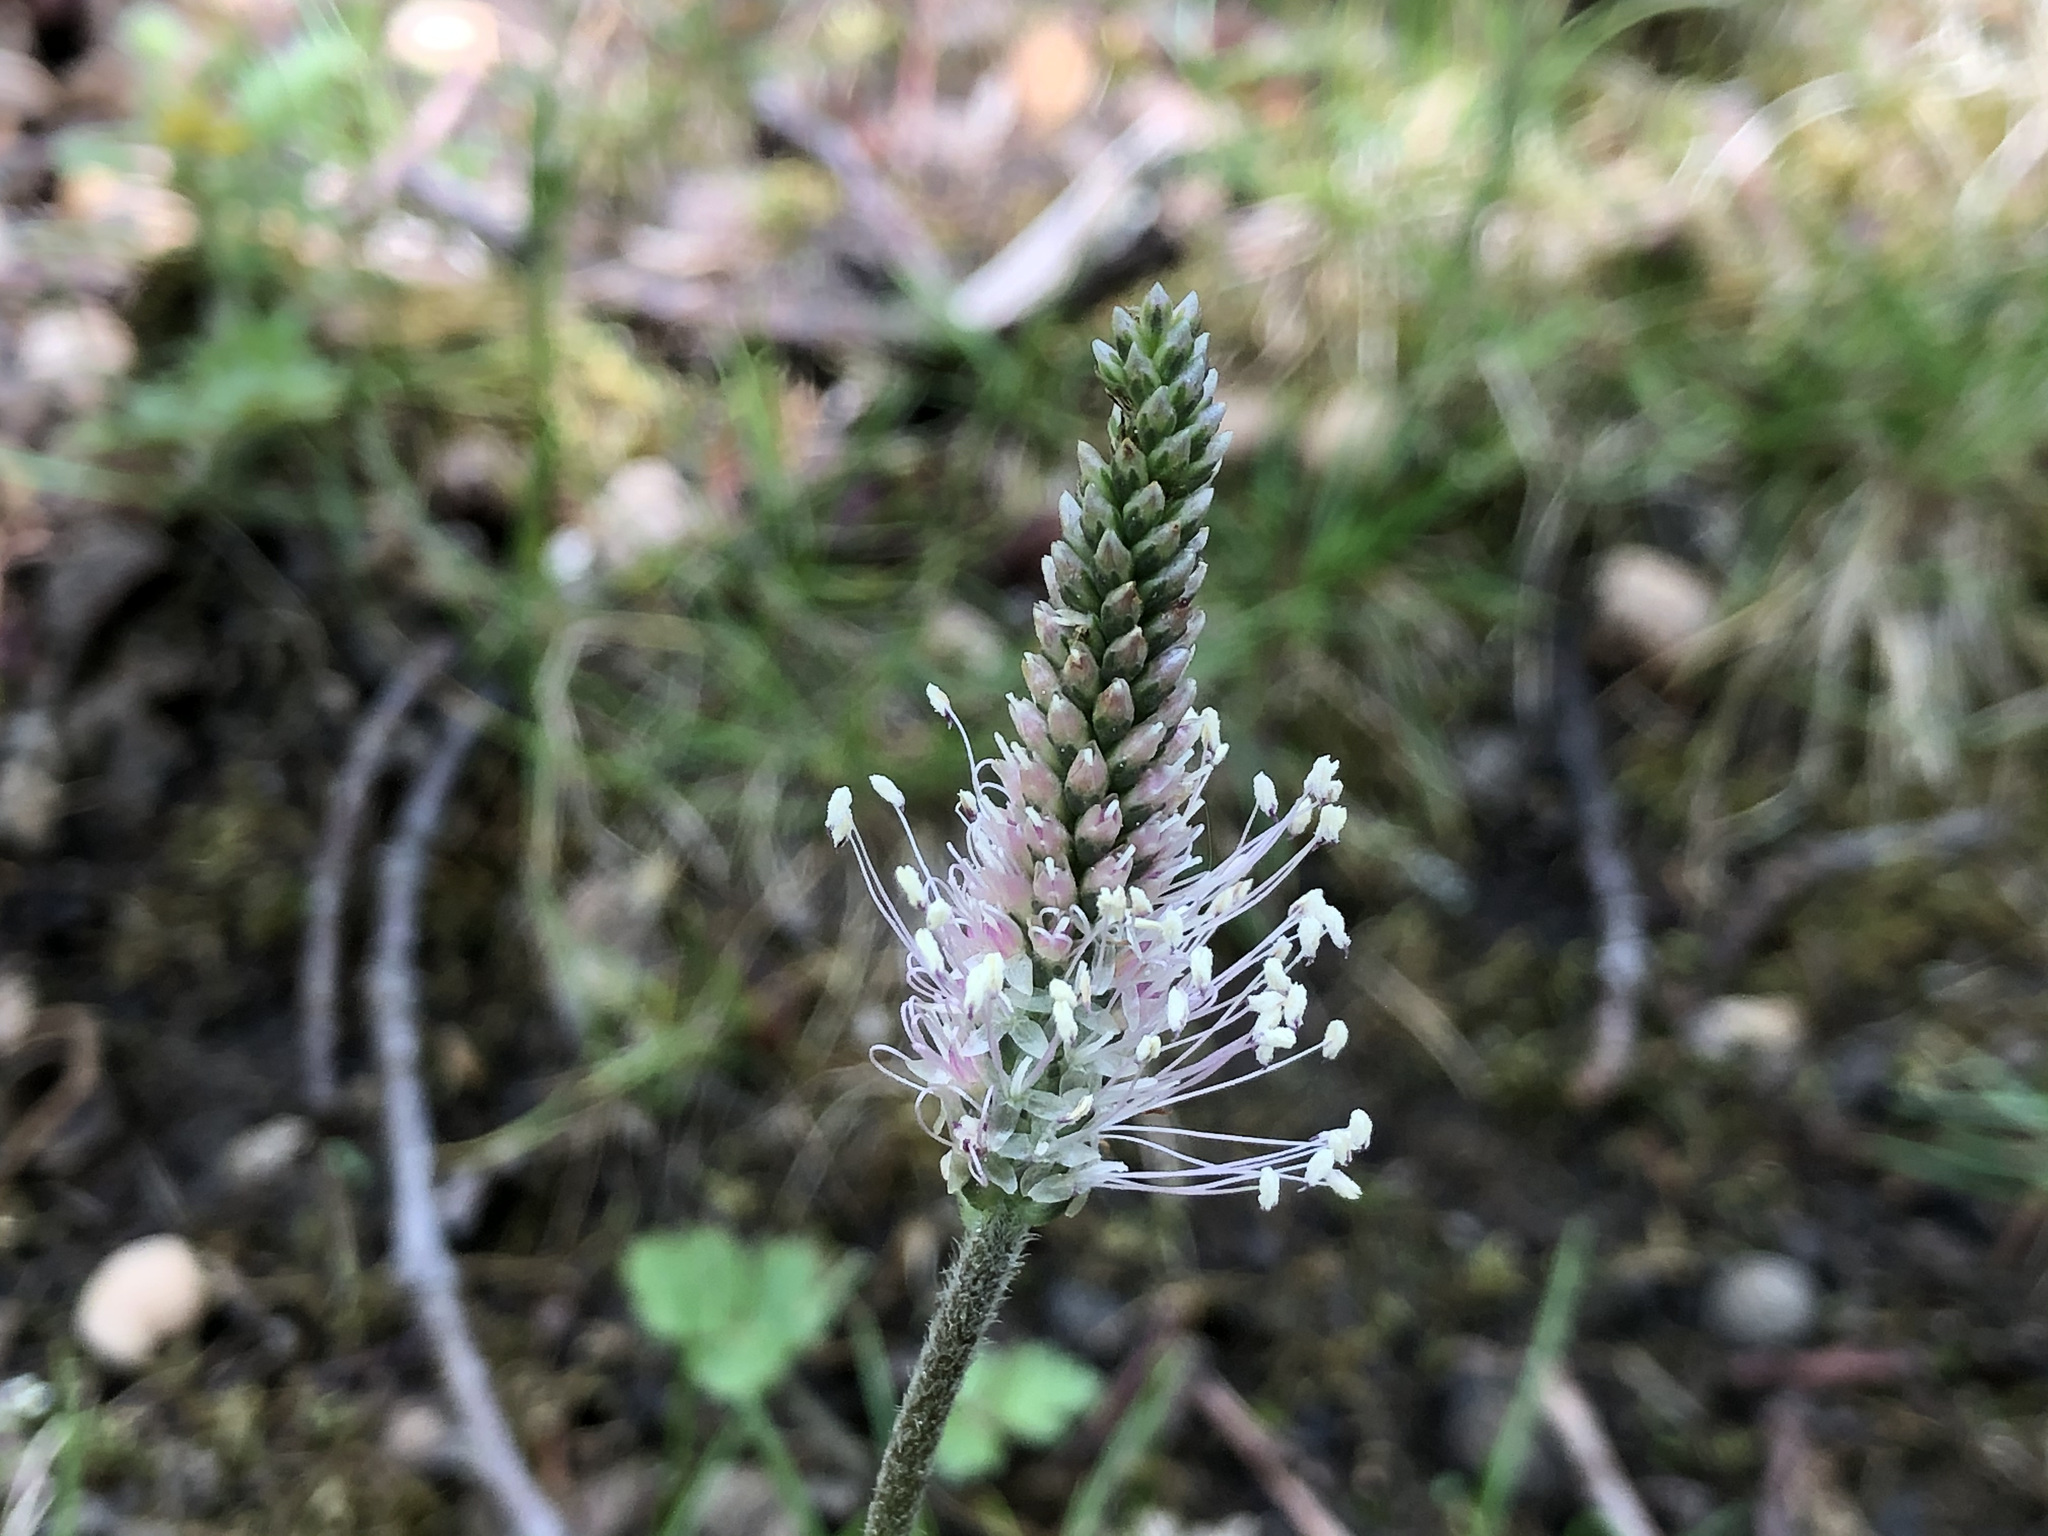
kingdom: Plantae
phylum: Tracheophyta
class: Magnoliopsida
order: Lamiales
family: Plantaginaceae
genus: Plantago
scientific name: Plantago media
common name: Hoary plantain
